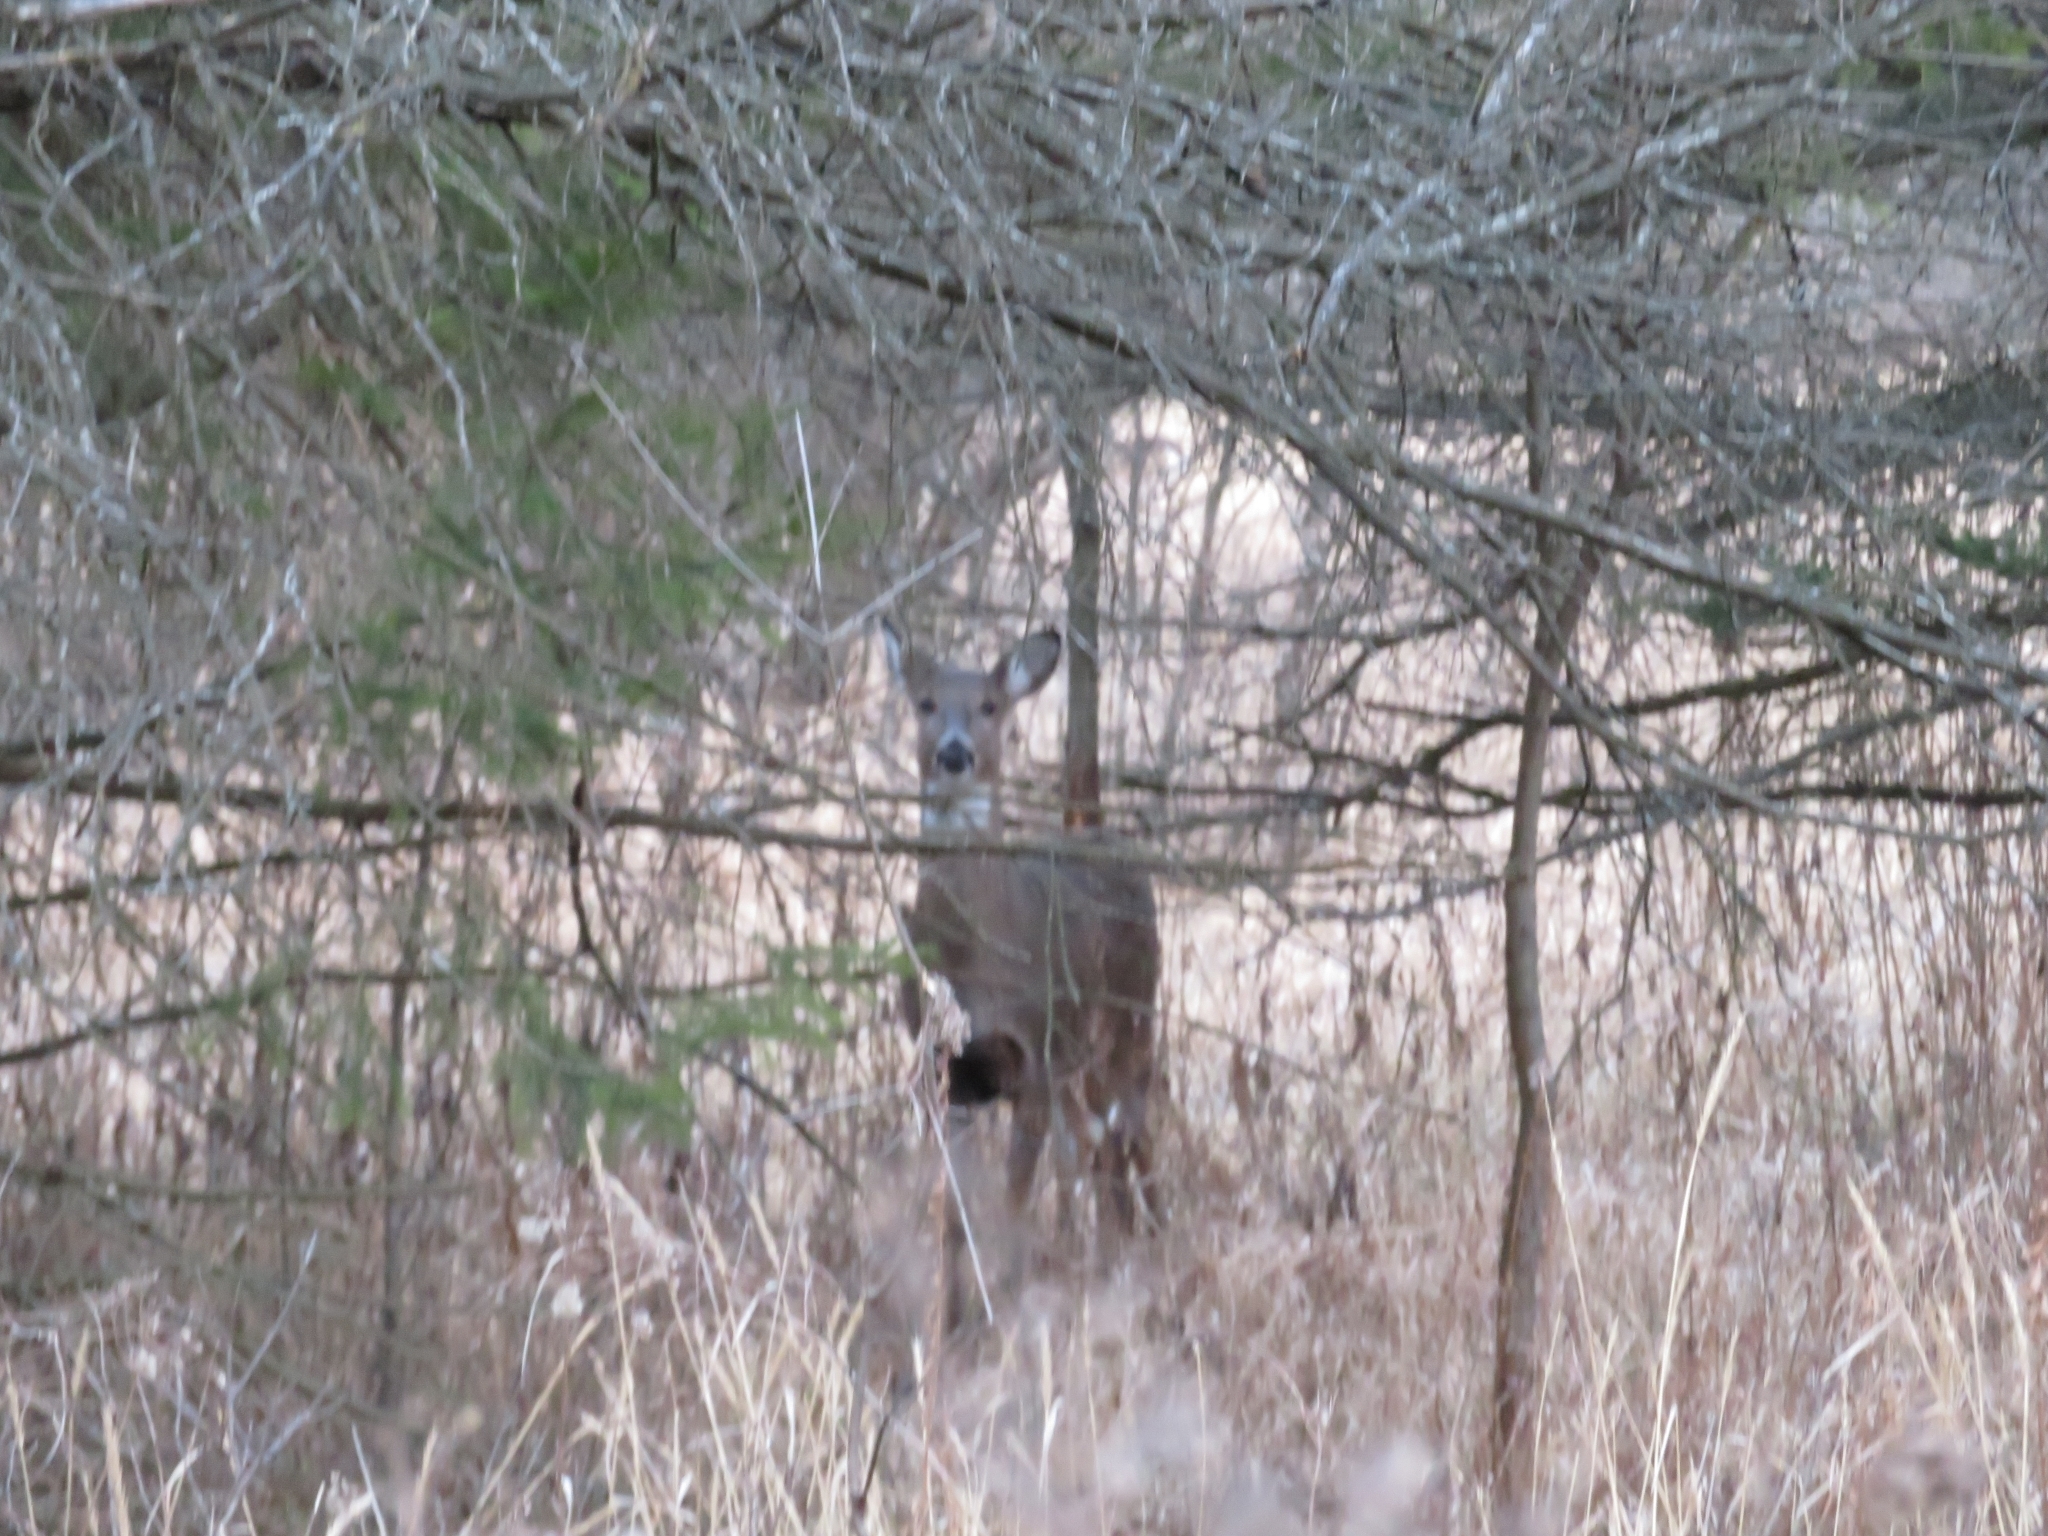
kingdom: Animalia
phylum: Chordata
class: Mammalia
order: Artiodactyla
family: Cervidae
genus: Odocoileus
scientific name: Odocoileus virginianus
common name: White-tailed deer
